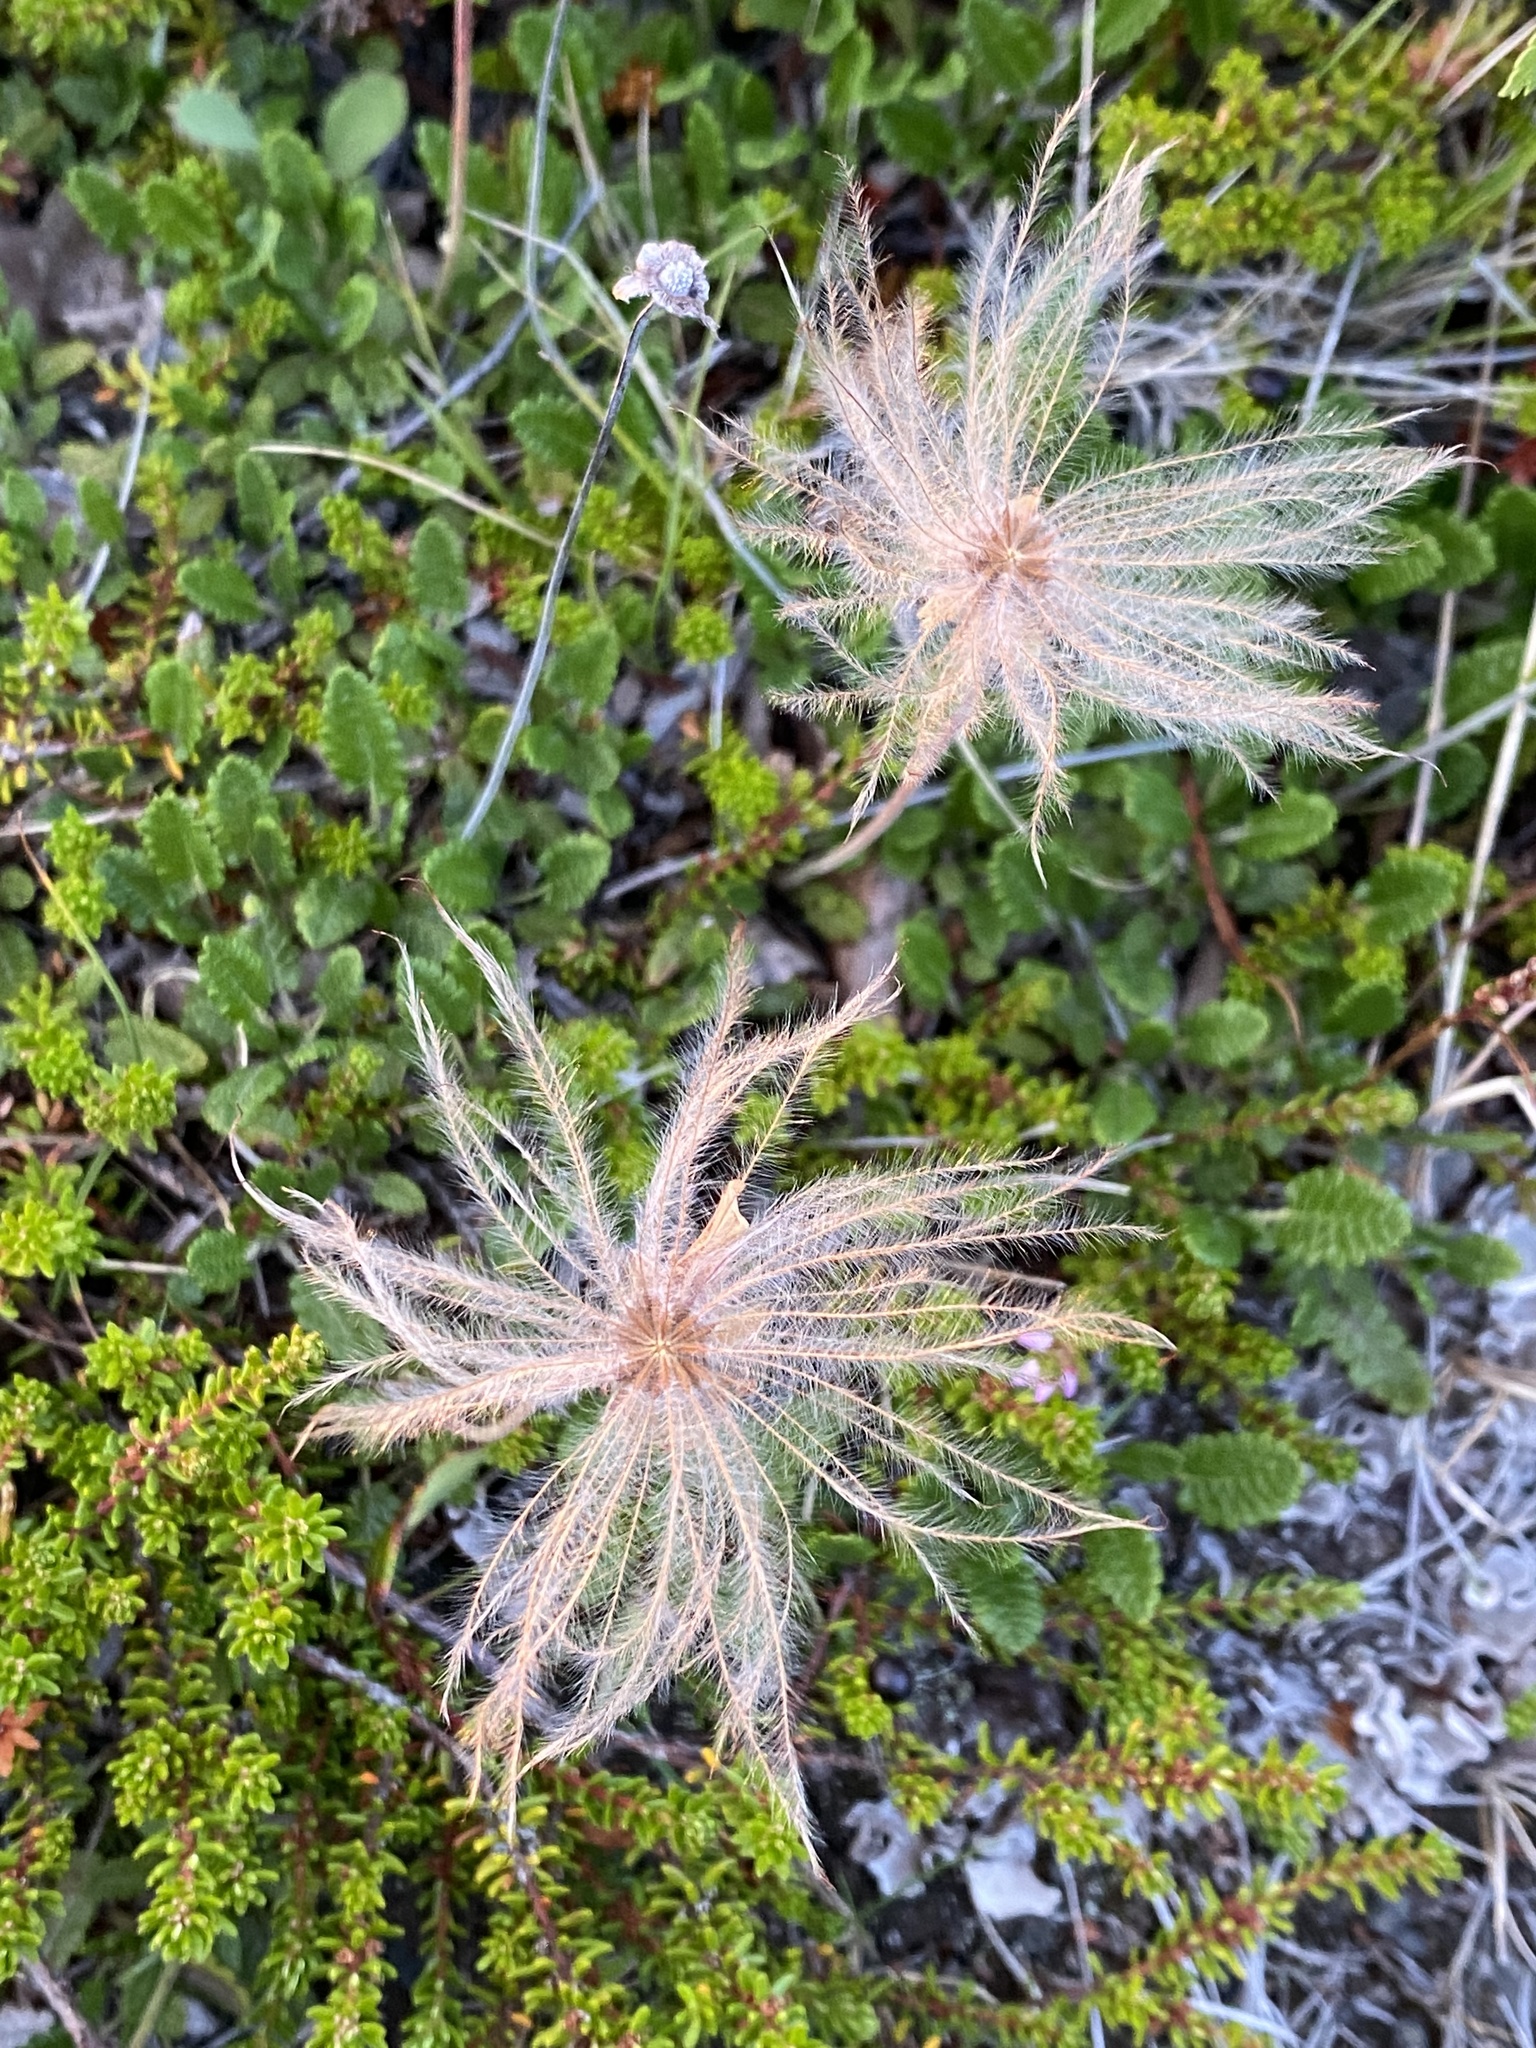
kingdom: Plantae
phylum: Tracheophyta
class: Magnoliopsida
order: Rosales
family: Rosaceae
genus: Dryas
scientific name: Dryas octopetala
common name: Eight-petal mountain-avens
